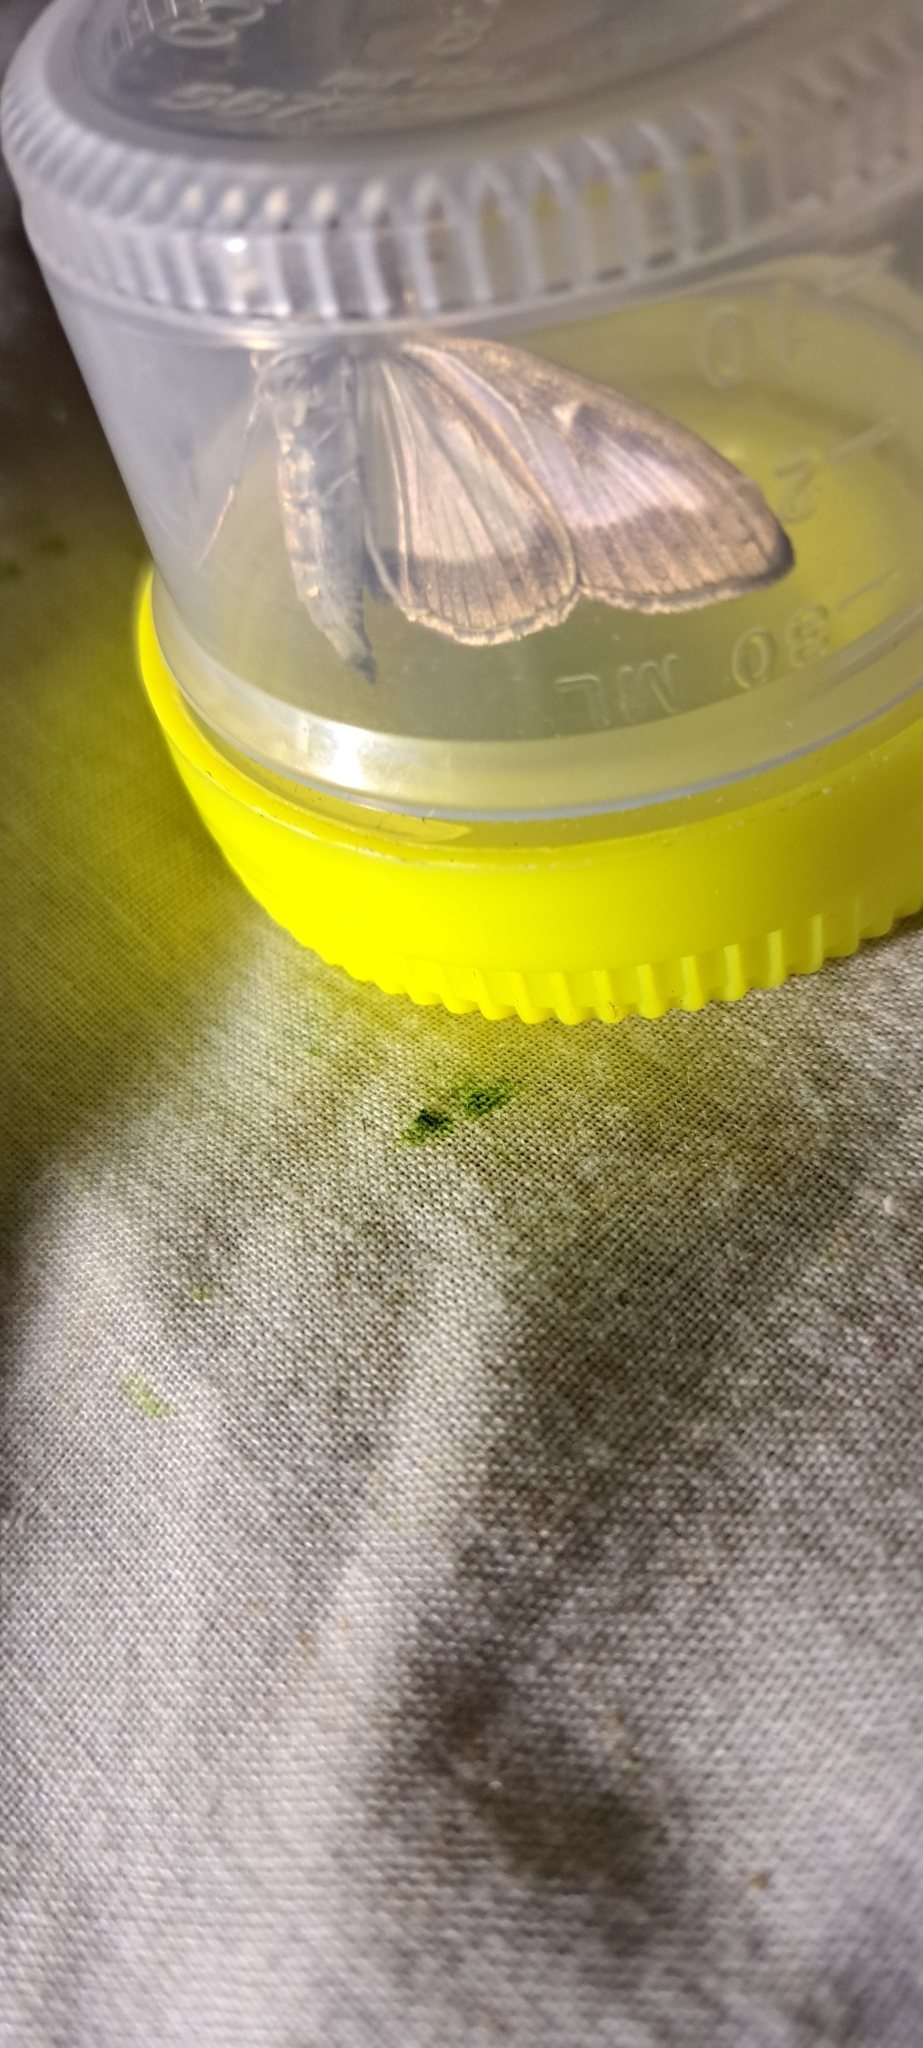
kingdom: Animalia
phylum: Arthropoda
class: Insecta
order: Lepidoptera
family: Crambidae
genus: Cydalima
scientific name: Cydalima perspectalis
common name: Box tree moth
